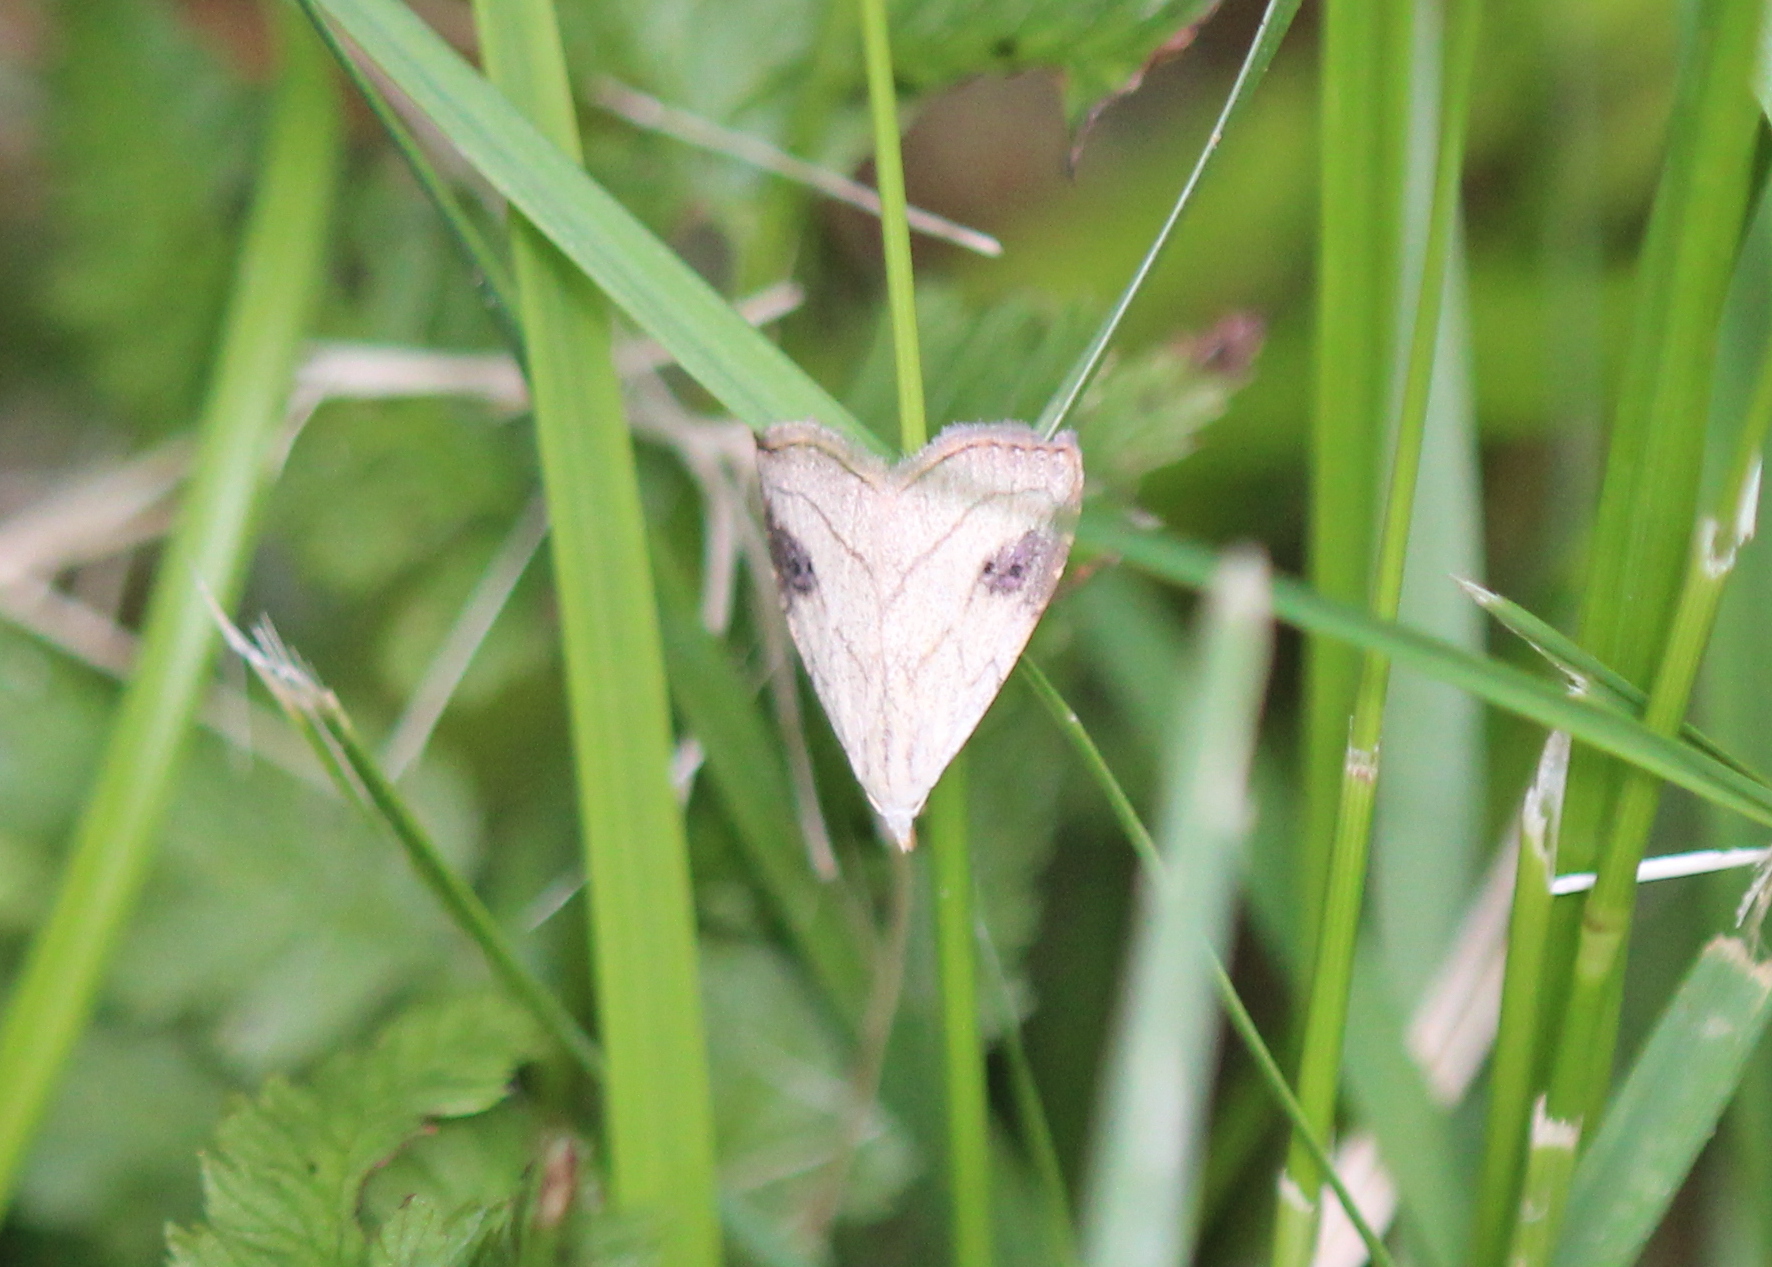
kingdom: Animalia
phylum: Arthropoda
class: Insecta
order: Lepidoptera
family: Erebidae
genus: Rivula
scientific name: Rivula propinqualis
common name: Spotted grass moth
